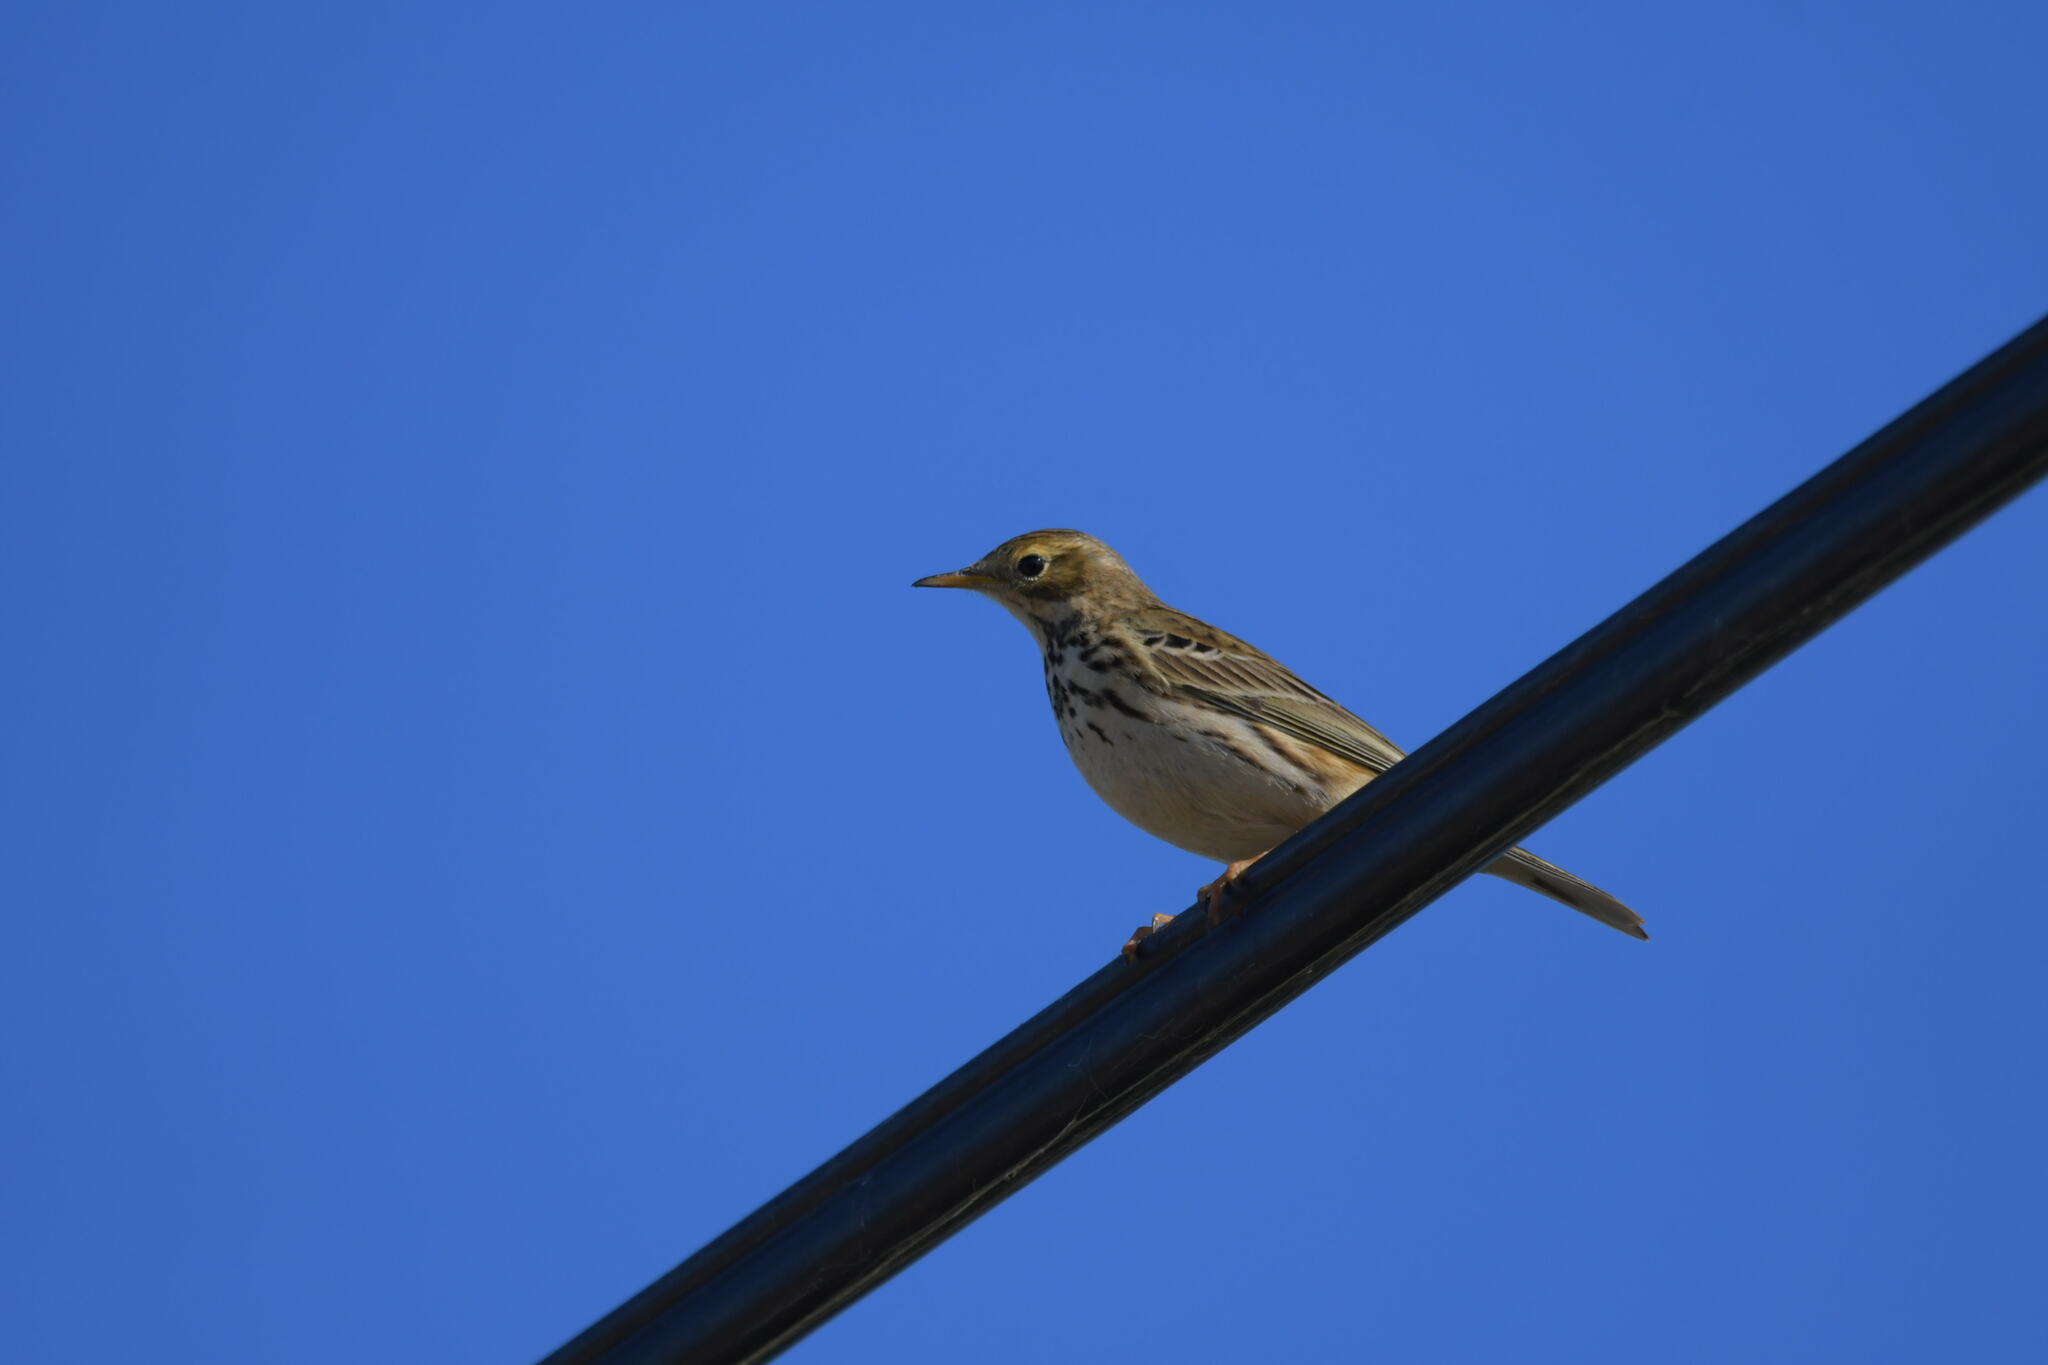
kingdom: Animalia
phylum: Chordata
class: Aves
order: Passeriformes
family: Motacillidae
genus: Anthus
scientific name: Anthus pratensis
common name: Meadow pipit
